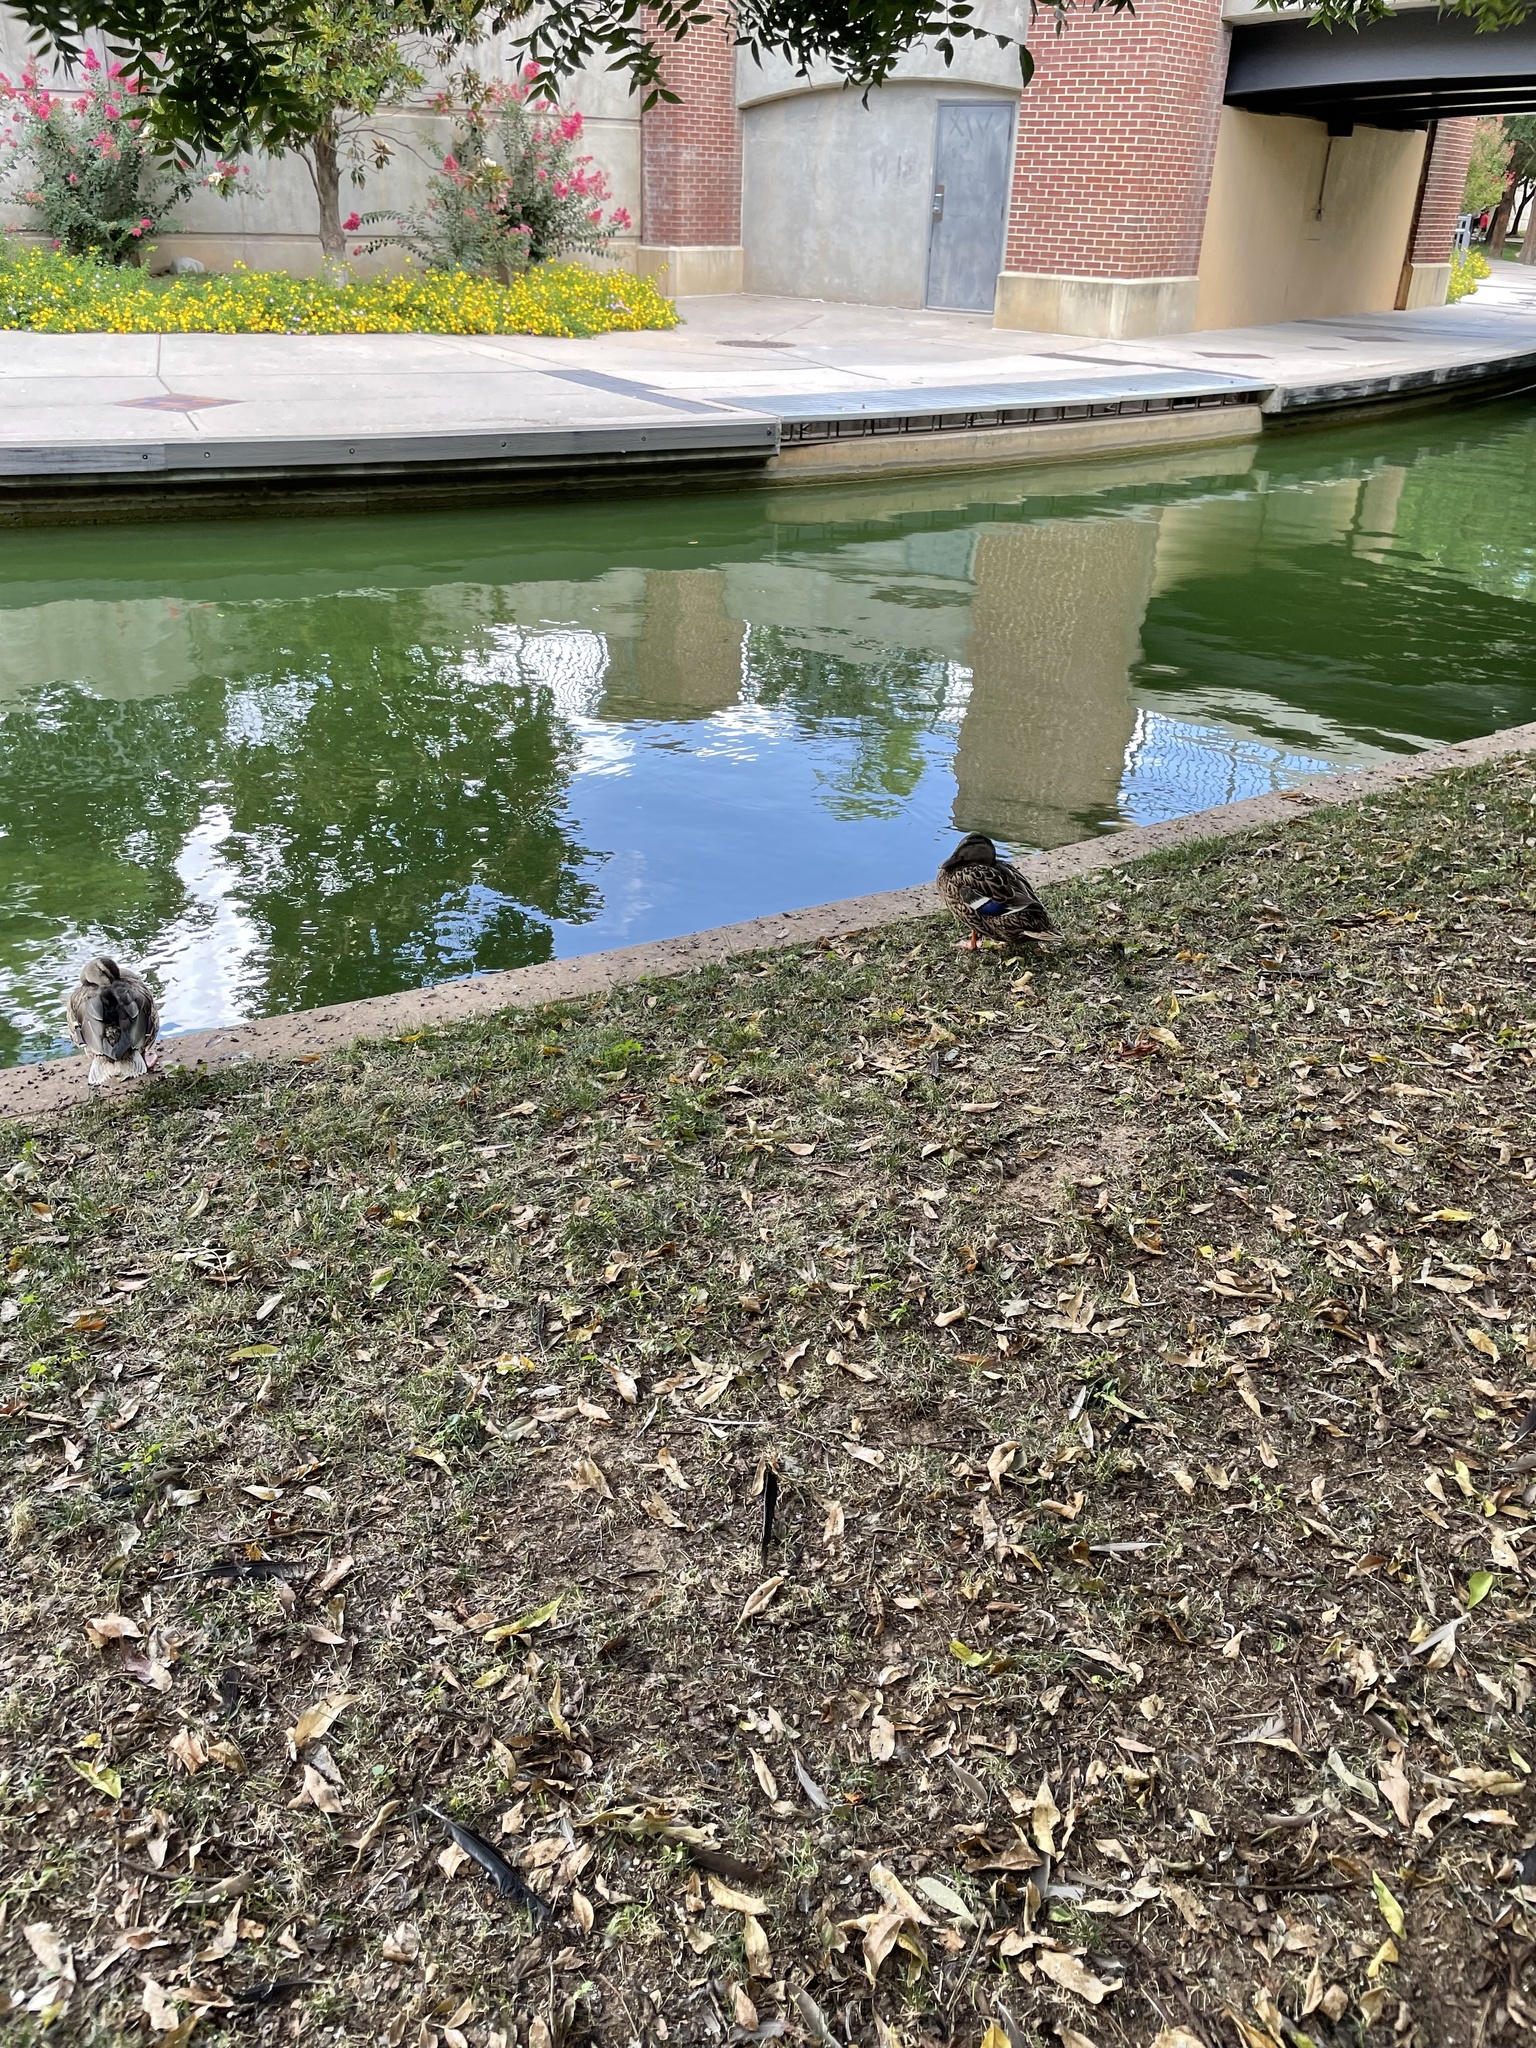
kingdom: Animalia
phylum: Chordata
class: Aves
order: Anseriformes
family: Anatidae
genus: Anas
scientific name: Anas platyrhynchos
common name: Mallard
